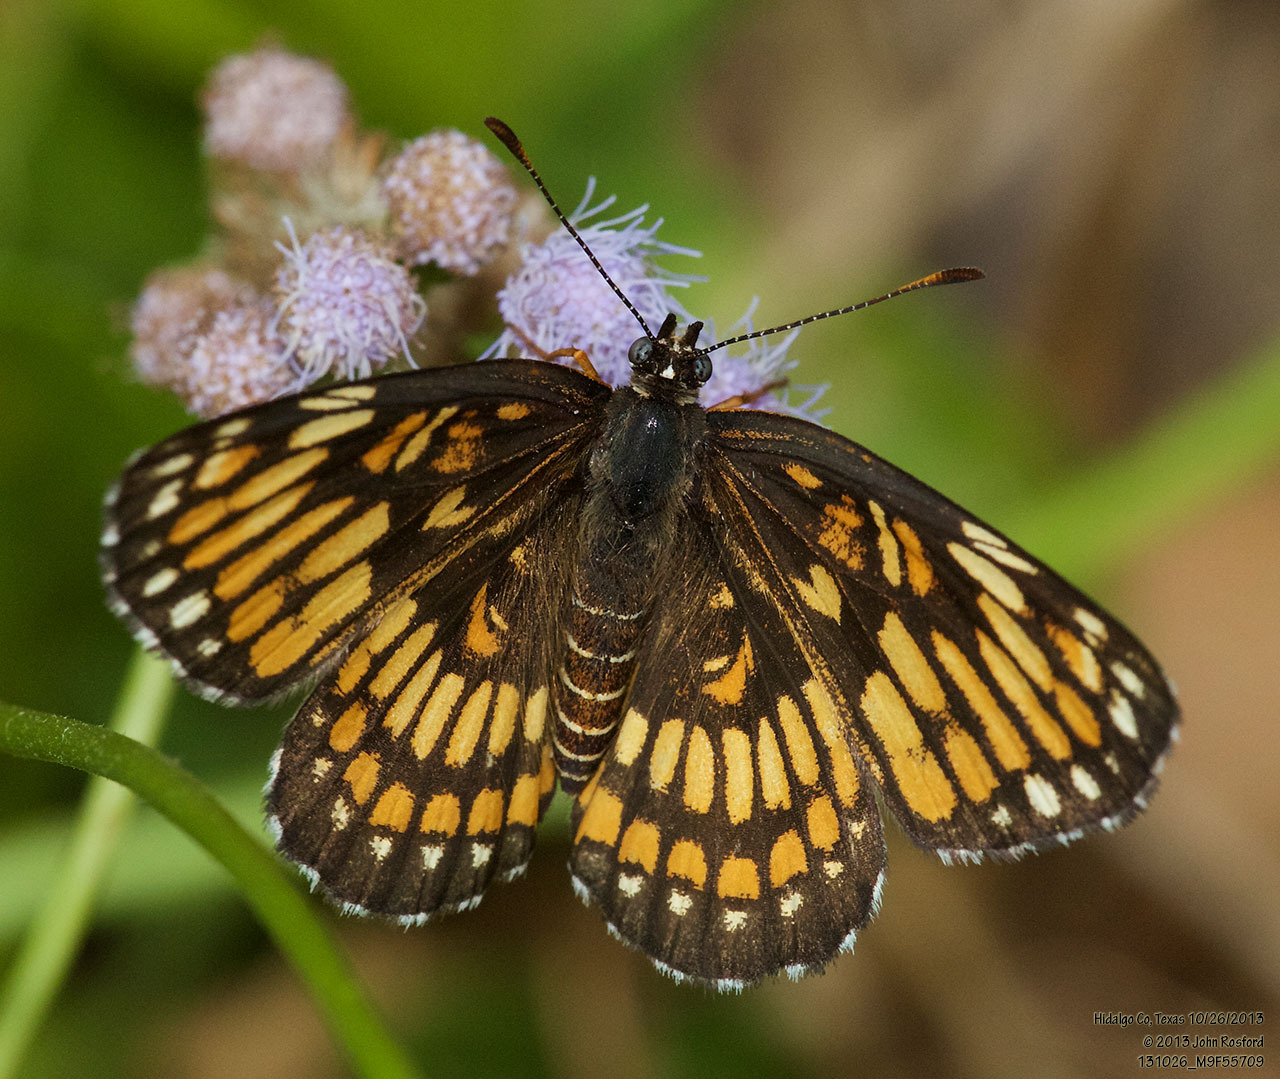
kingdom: Animalia
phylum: Arthropoda
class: Insecta
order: Lepidoptera
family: Nymphalidae
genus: Thessalia
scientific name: Thessalia theona
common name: Nymphalid moth
